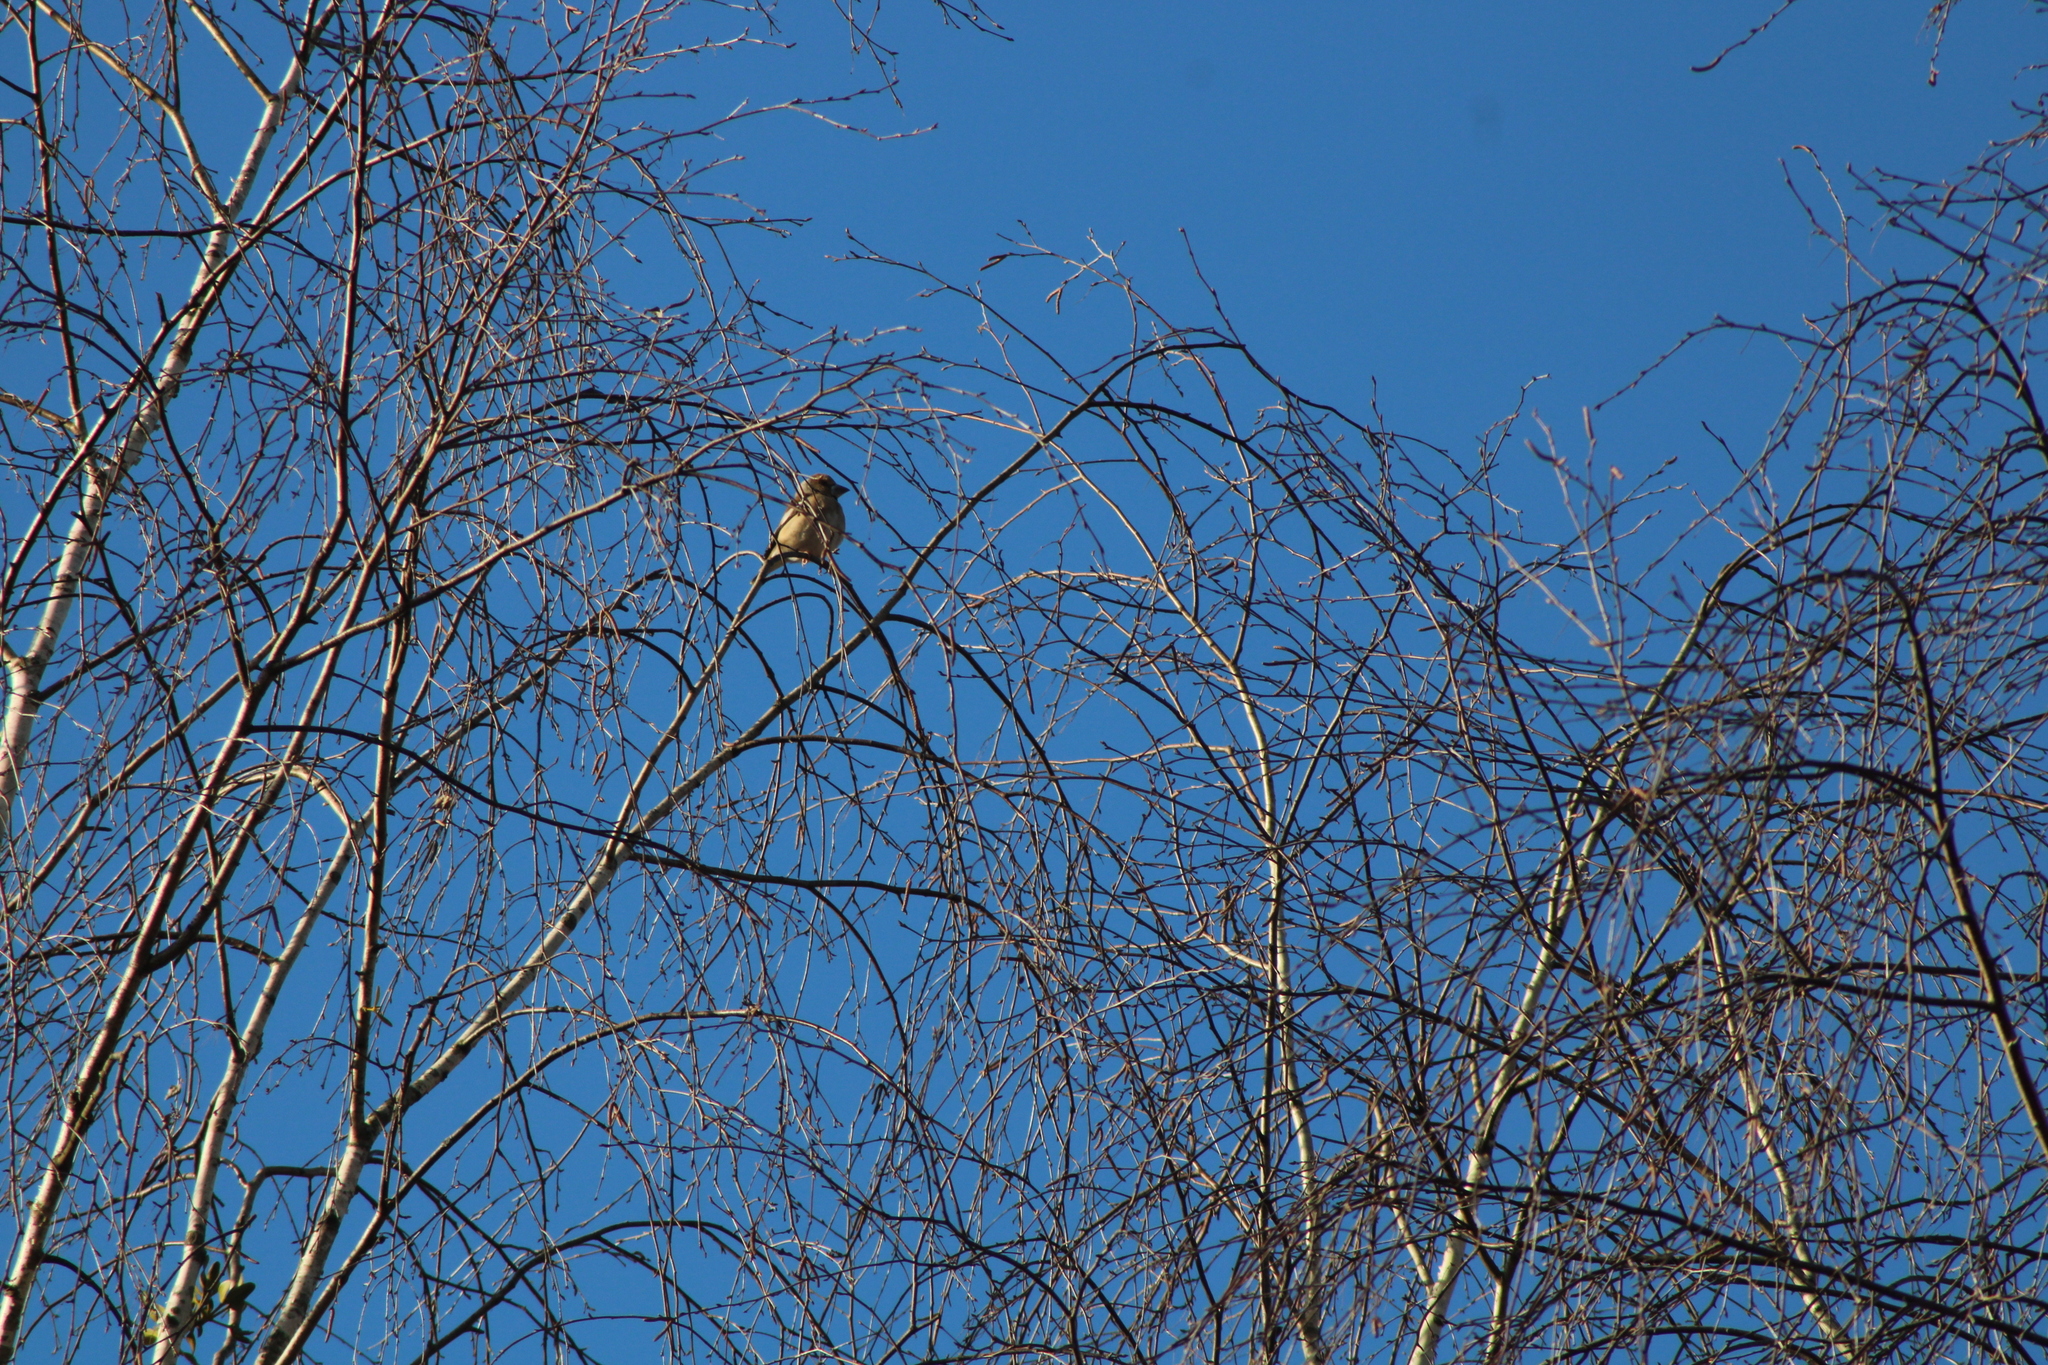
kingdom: Animalia
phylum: Chordata
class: Aves
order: Passeriformes
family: Fringillidae
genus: Coccothraustes
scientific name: Coccothraustes coccothraustes
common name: Hawfinch
